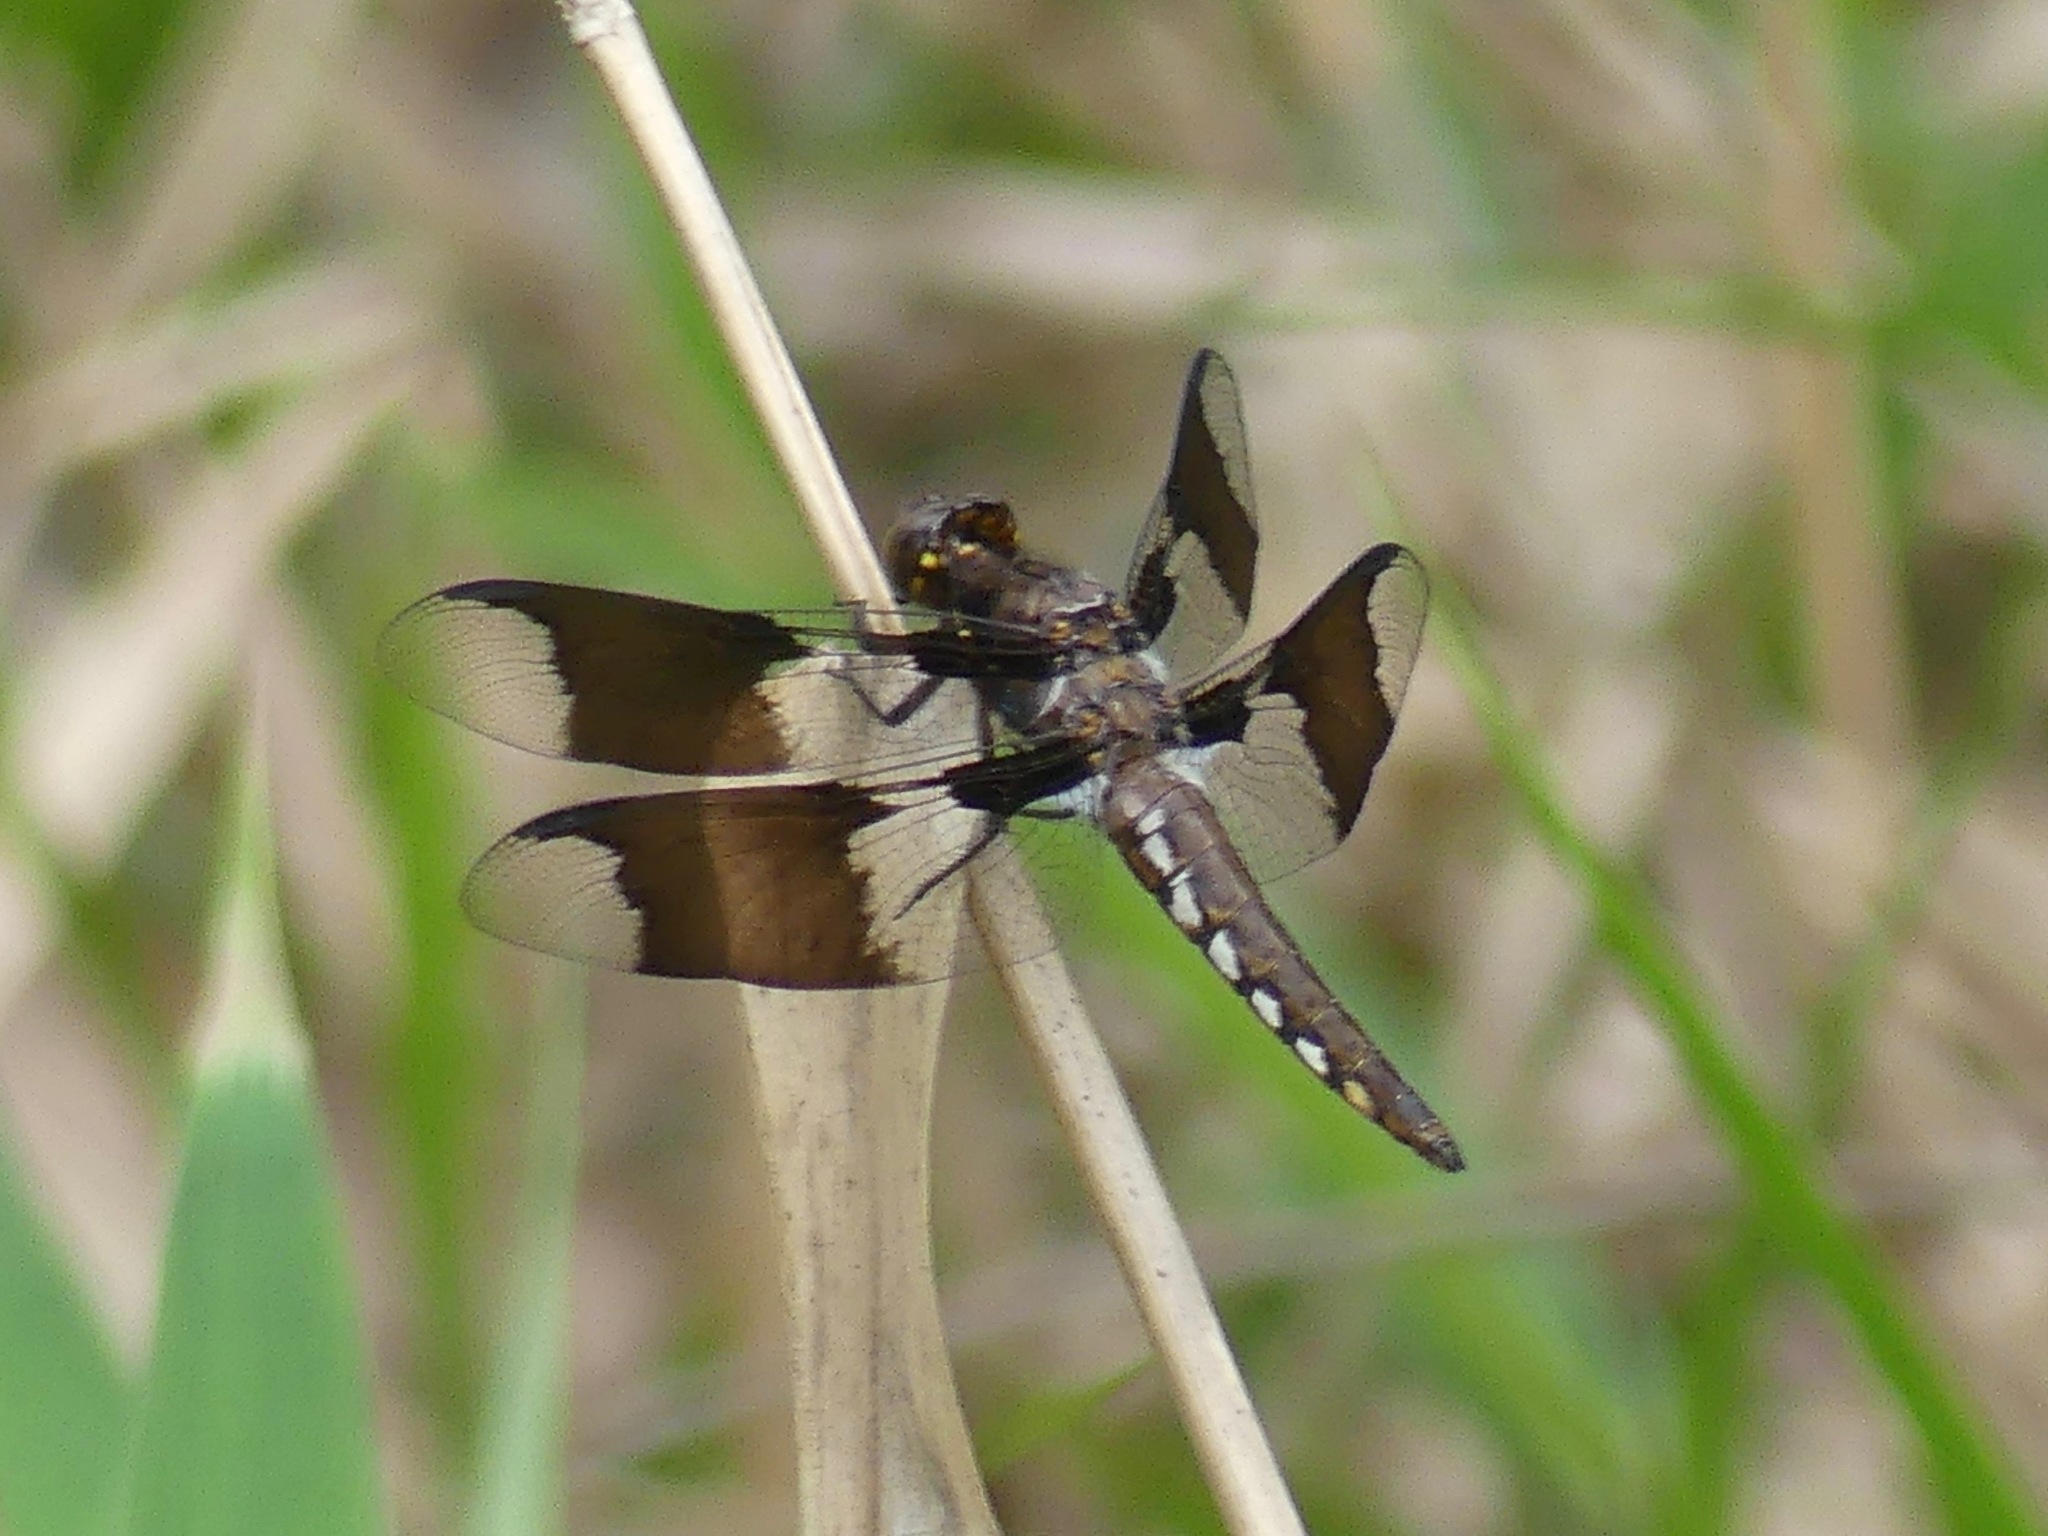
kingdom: Animalia
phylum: Arthropoda
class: Insecta
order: Odonata
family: Libellulidae
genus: Plathemis
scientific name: Plathemis lydia
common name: Common whitetail
